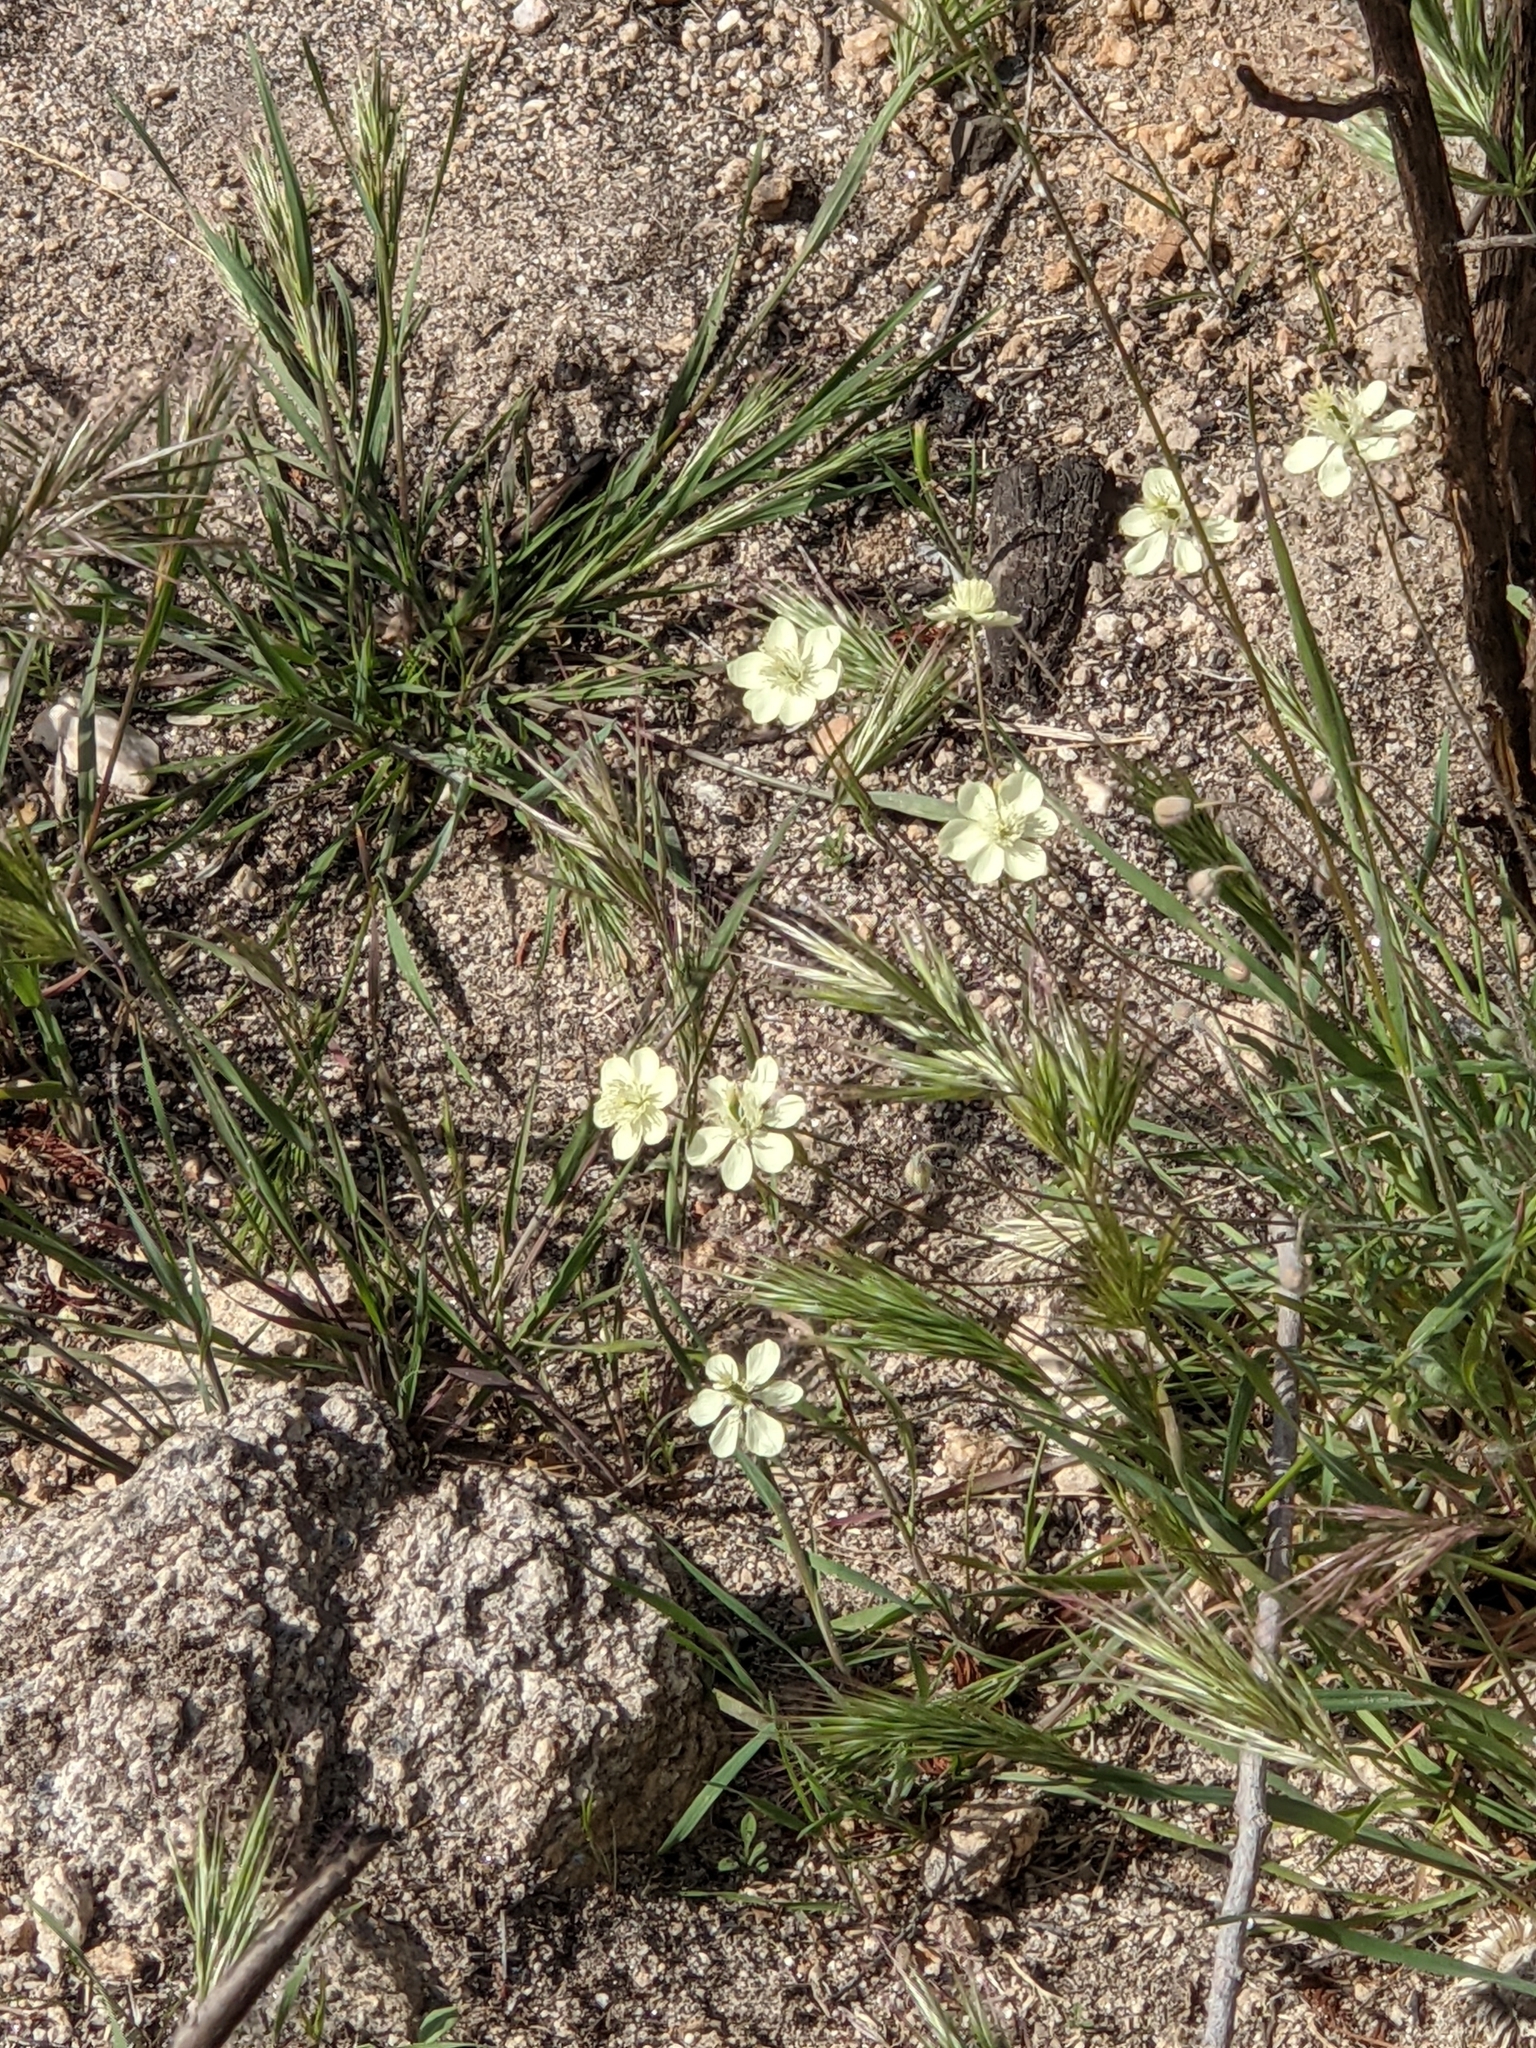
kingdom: Plantae
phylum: Tracheophyta
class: Magnoliopsida
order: Ranunculales
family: Papaveraceae
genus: Platystemon
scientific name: Platystemon californicus
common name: Cream-cups
